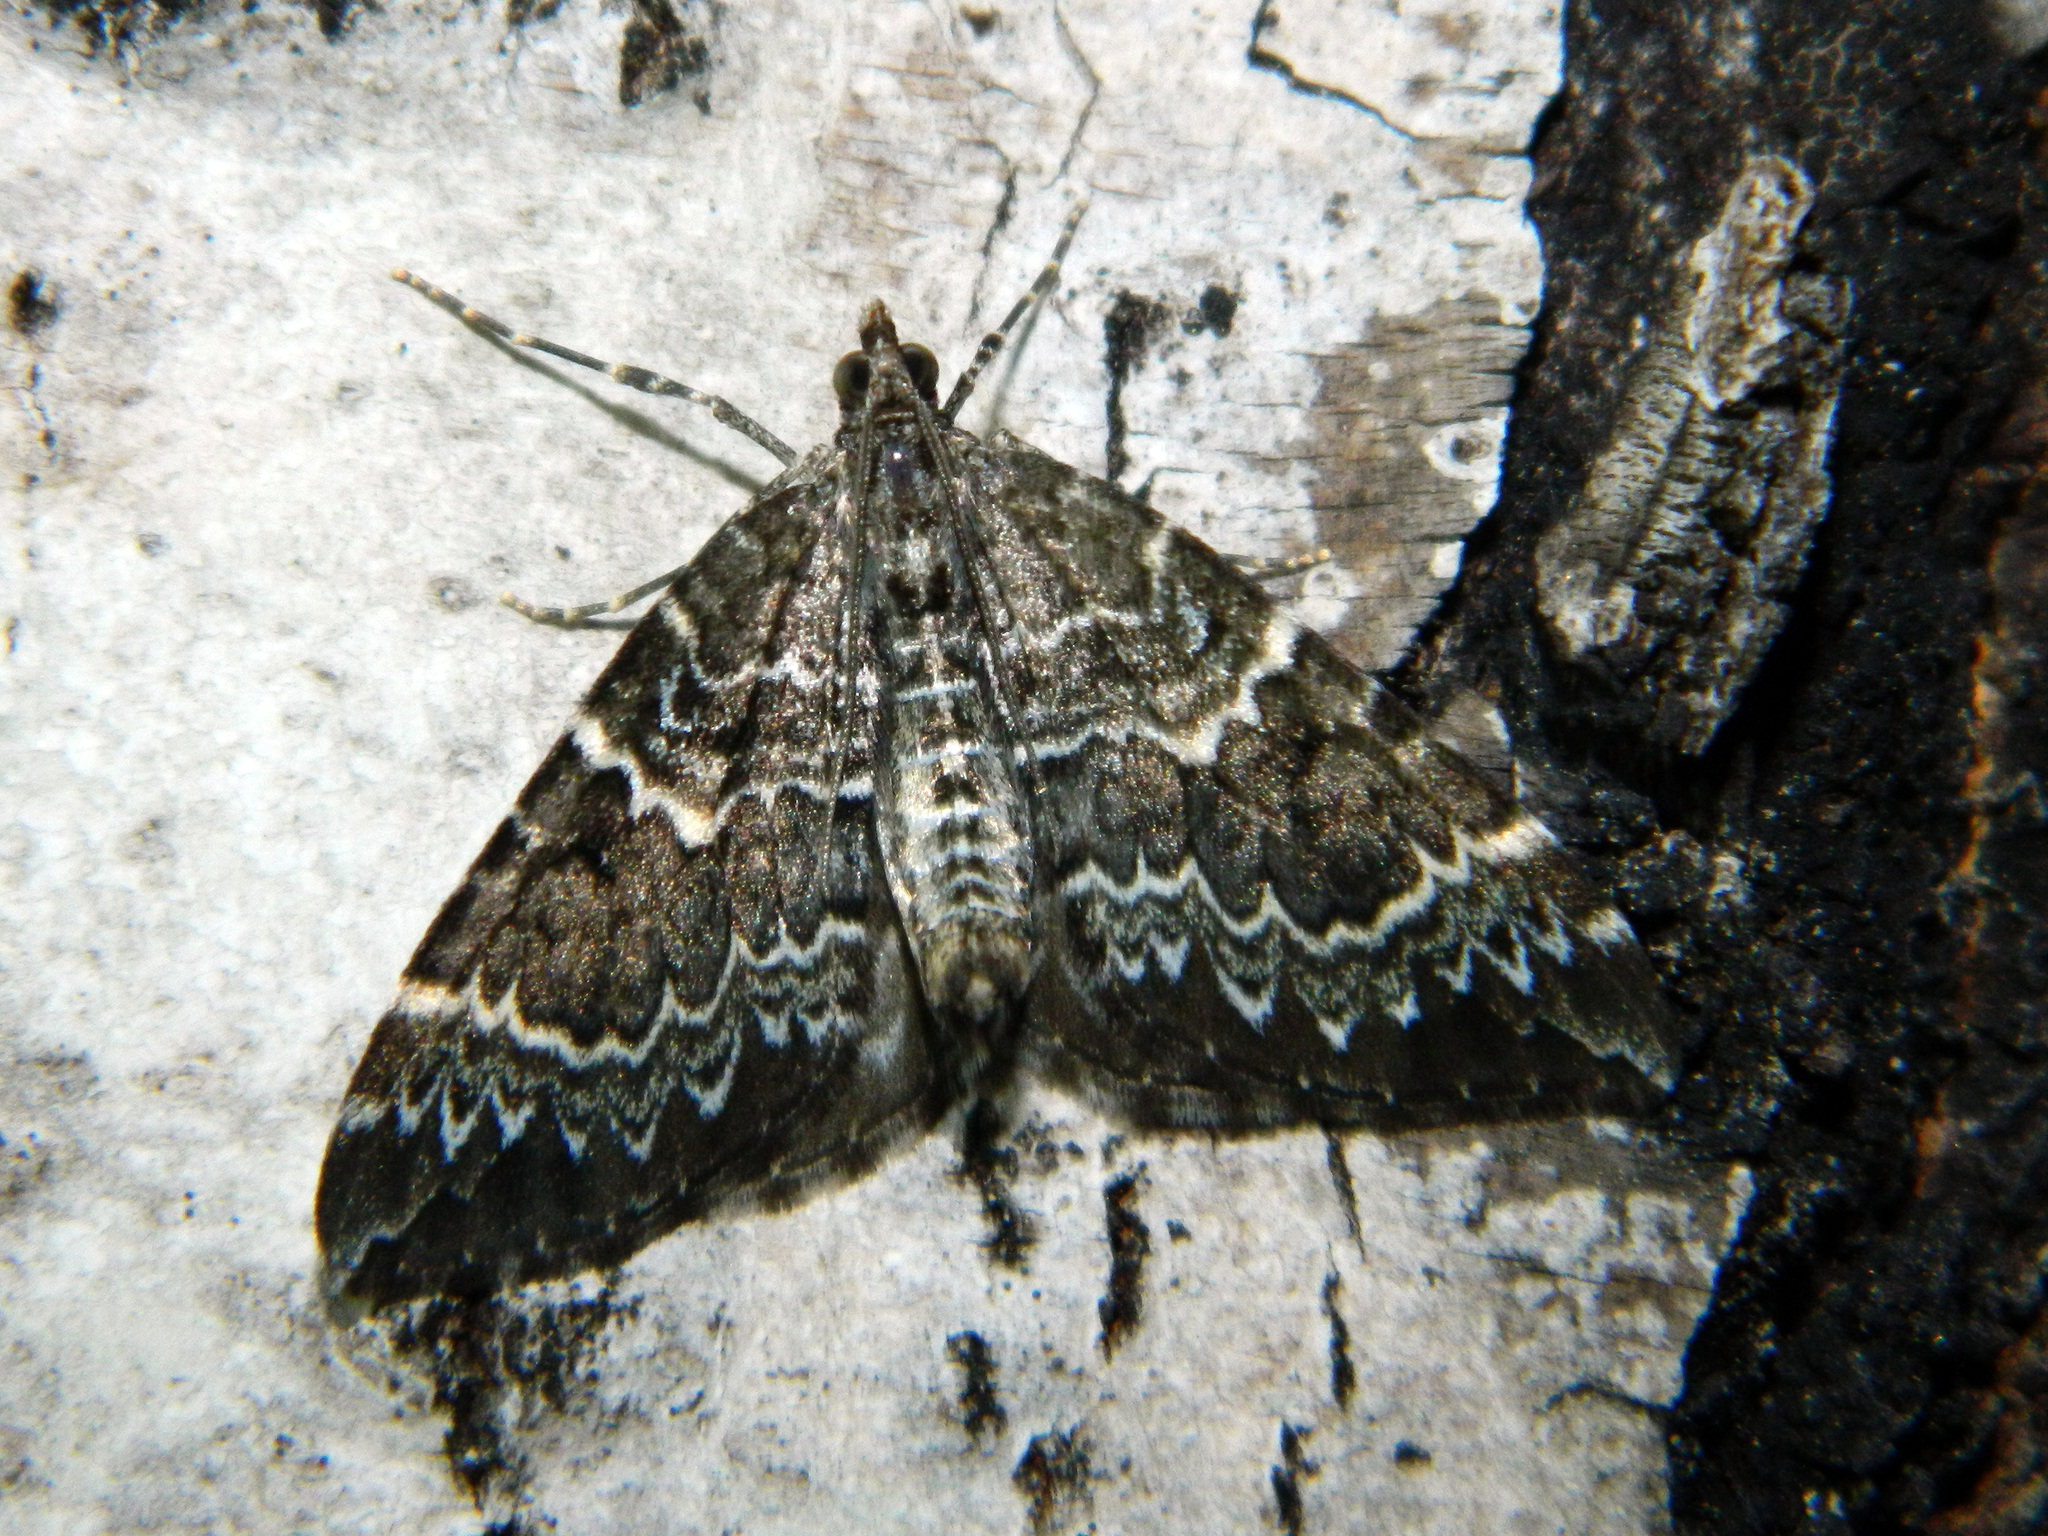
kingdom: Animalia
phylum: Arthropoda
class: Insecta
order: Lepidoptera
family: Geometridae
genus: Eulithis
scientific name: Eulithis explanata
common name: White eulithis
